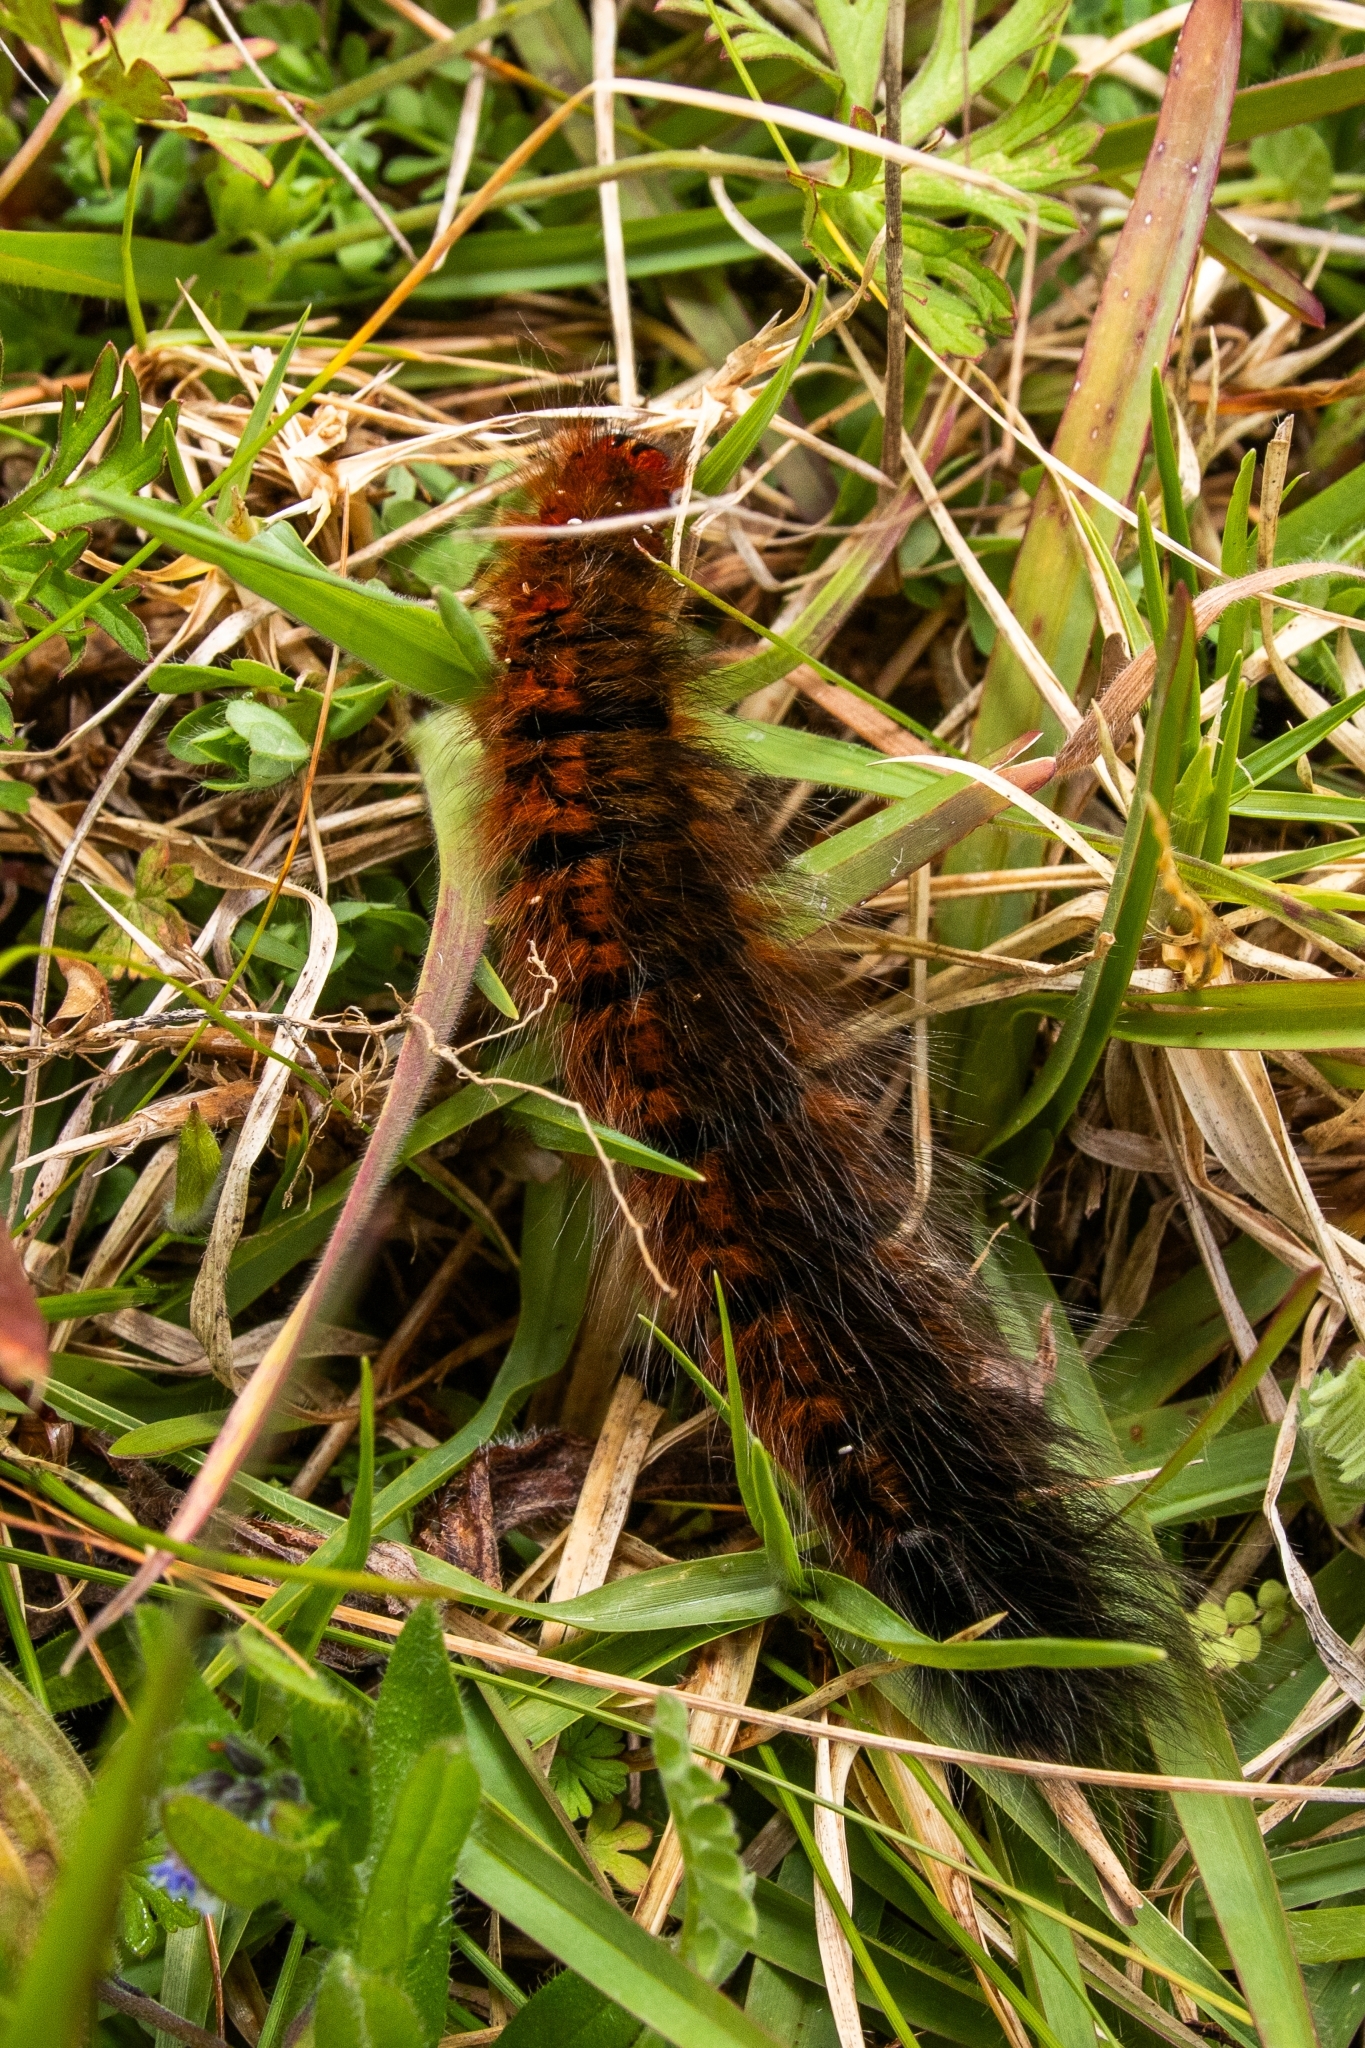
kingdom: Animalia
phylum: Arthropoda
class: Insecta
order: Lepidoptera
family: Lasiocampidae
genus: Mesocelis
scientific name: Mesocelis monticola
